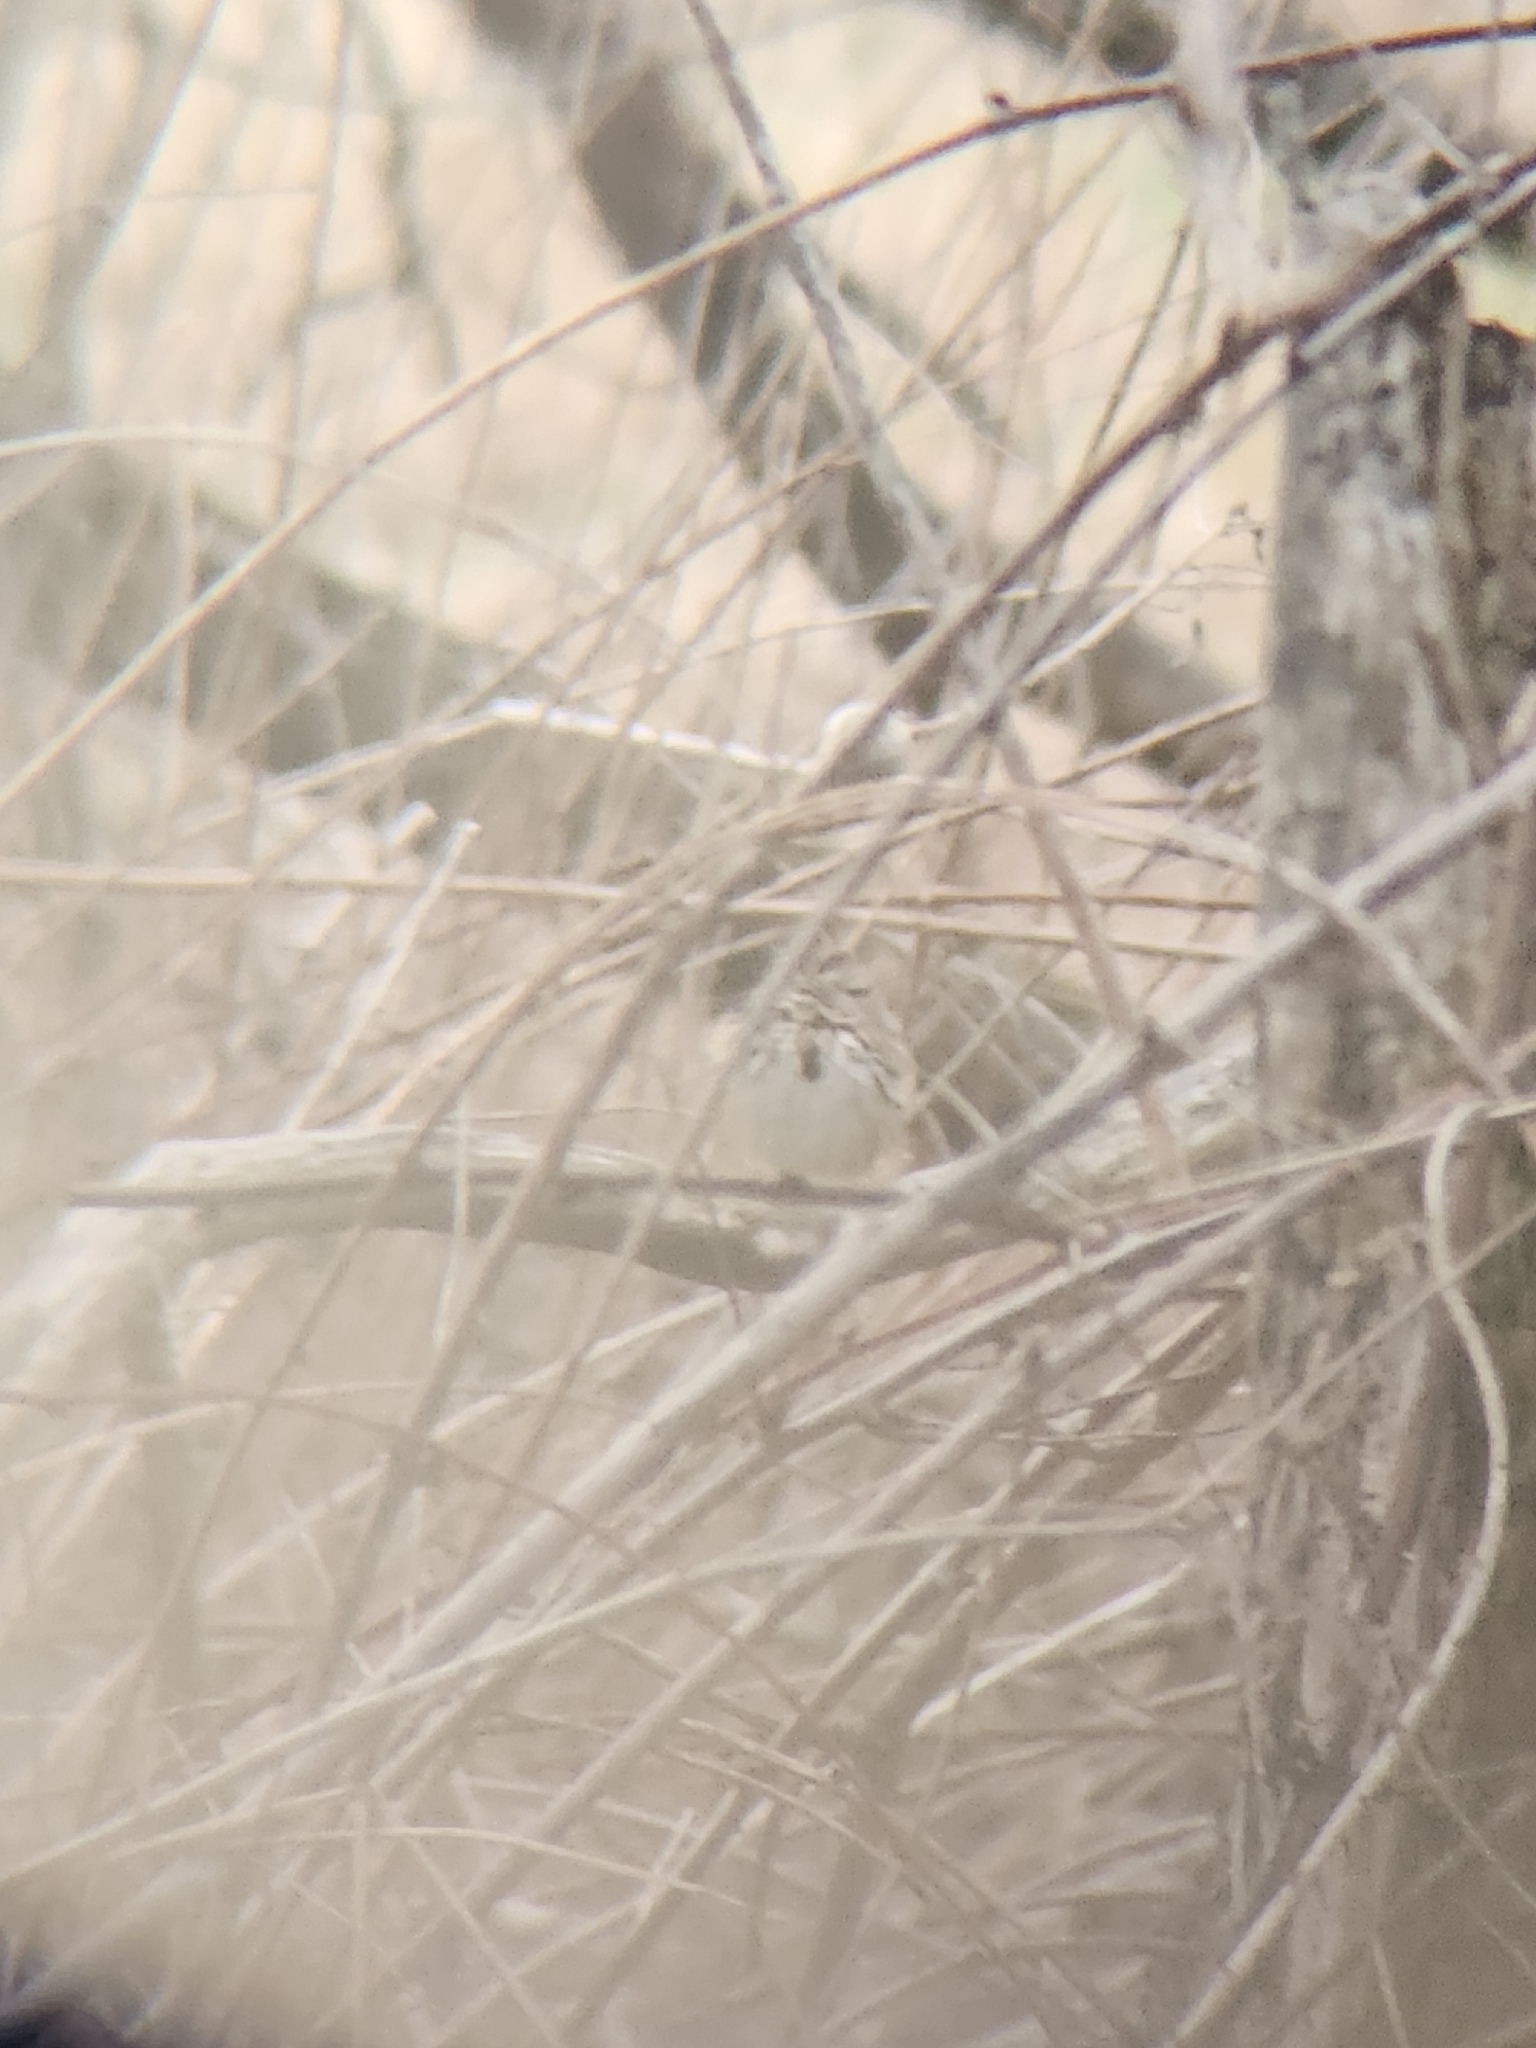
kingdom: Animalia
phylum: Chordata
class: Aves
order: Passeriformes
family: Passerellidae
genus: Melospiza
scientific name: Melospiza melodia
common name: Song sparrow
